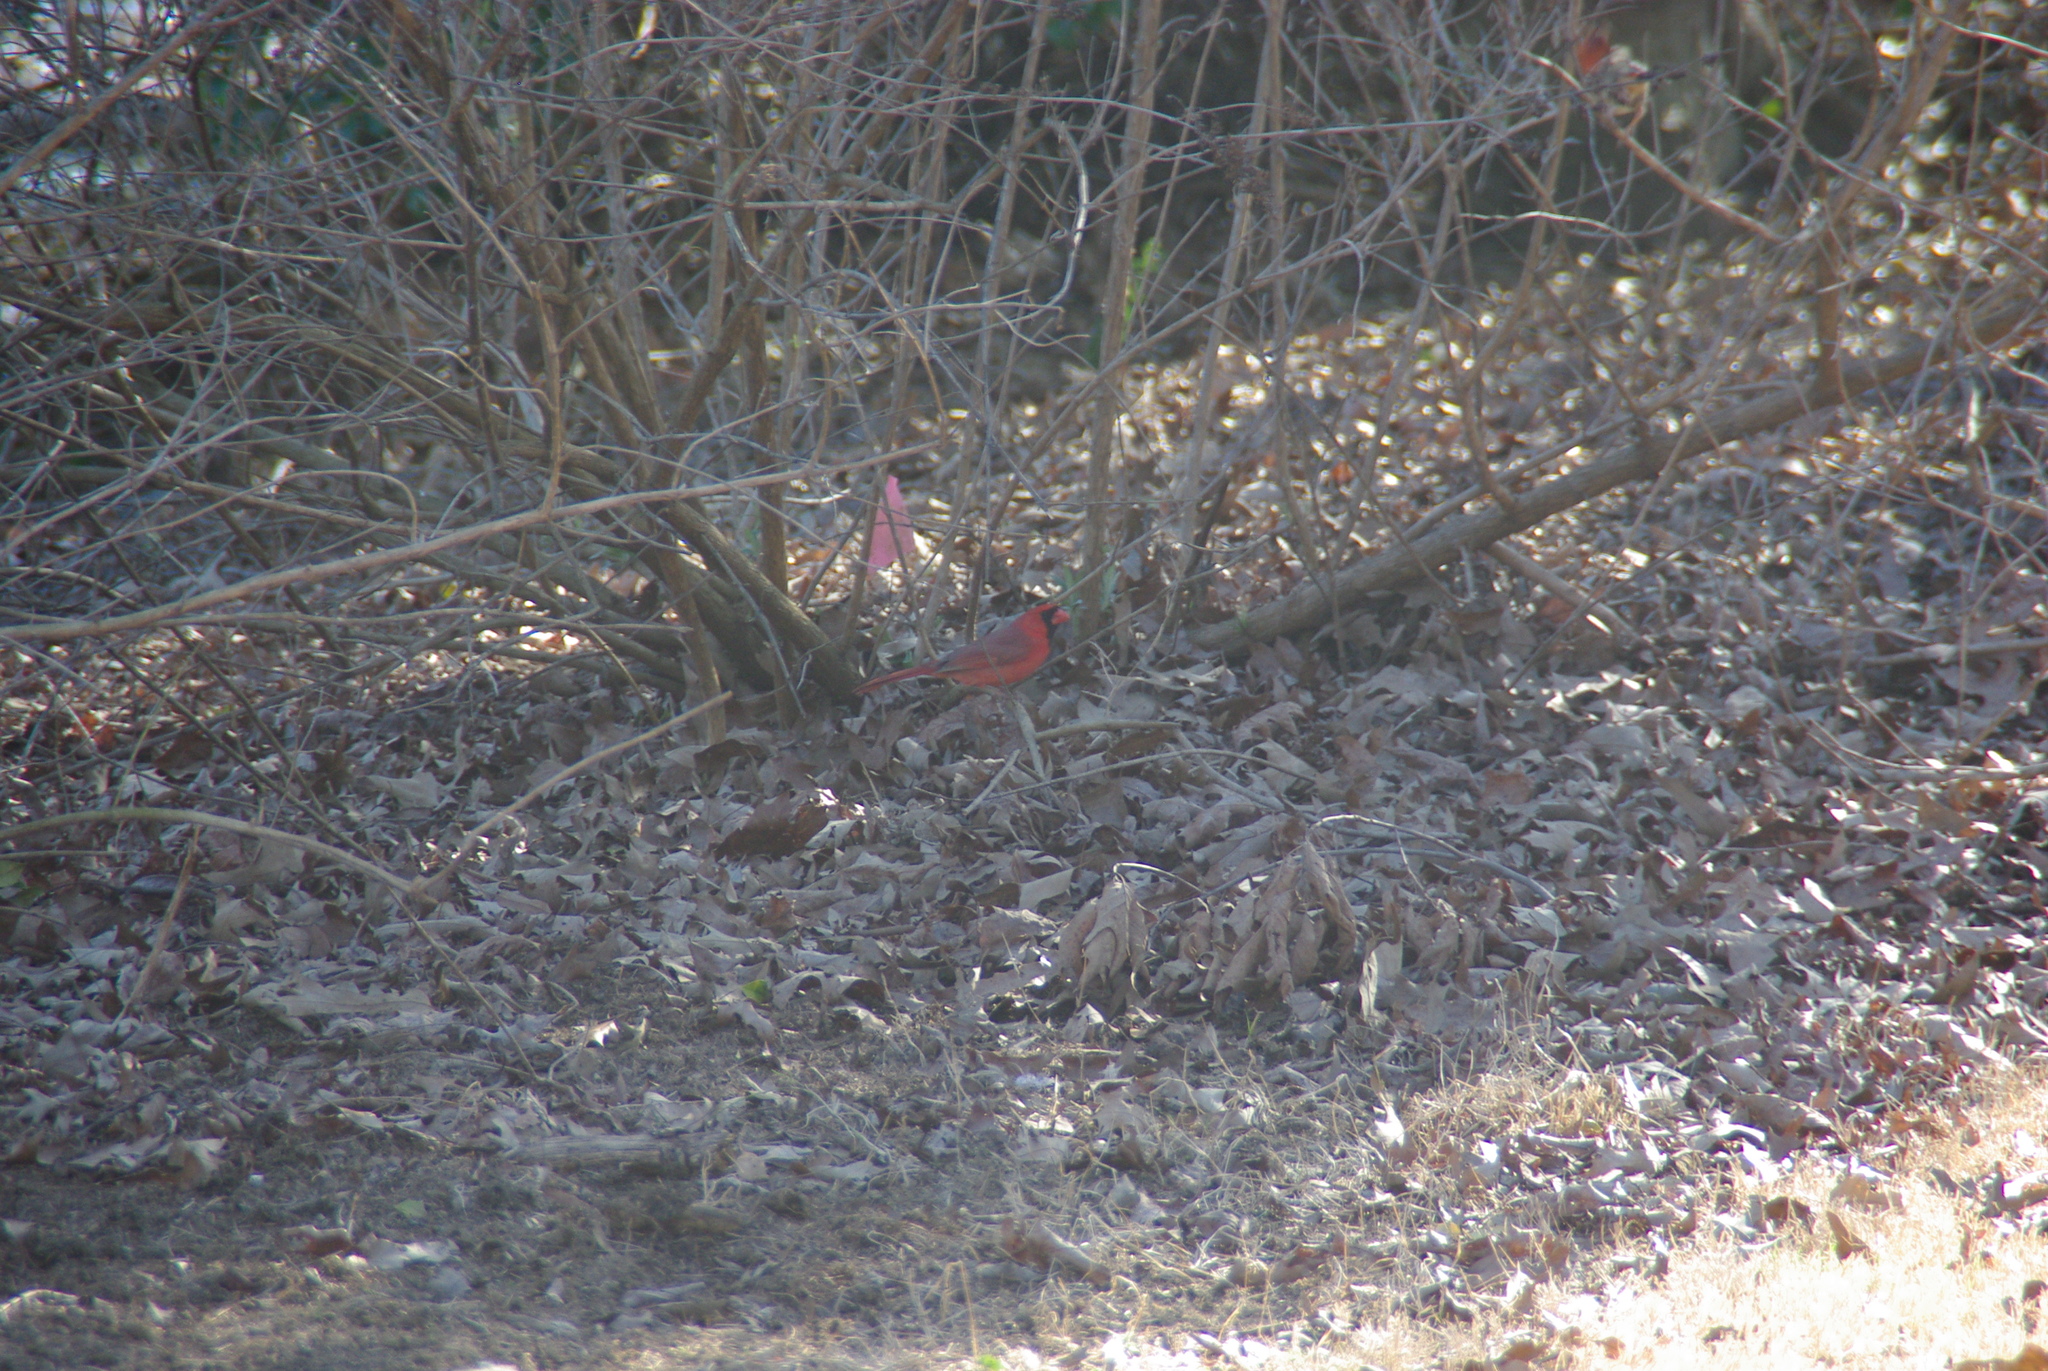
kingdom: Animalia
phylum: Chordata
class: Aves
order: Passeriformes
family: Cardinalidae
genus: Cardinalis
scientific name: Cardinalis cardinalis
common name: Northern cardinal
